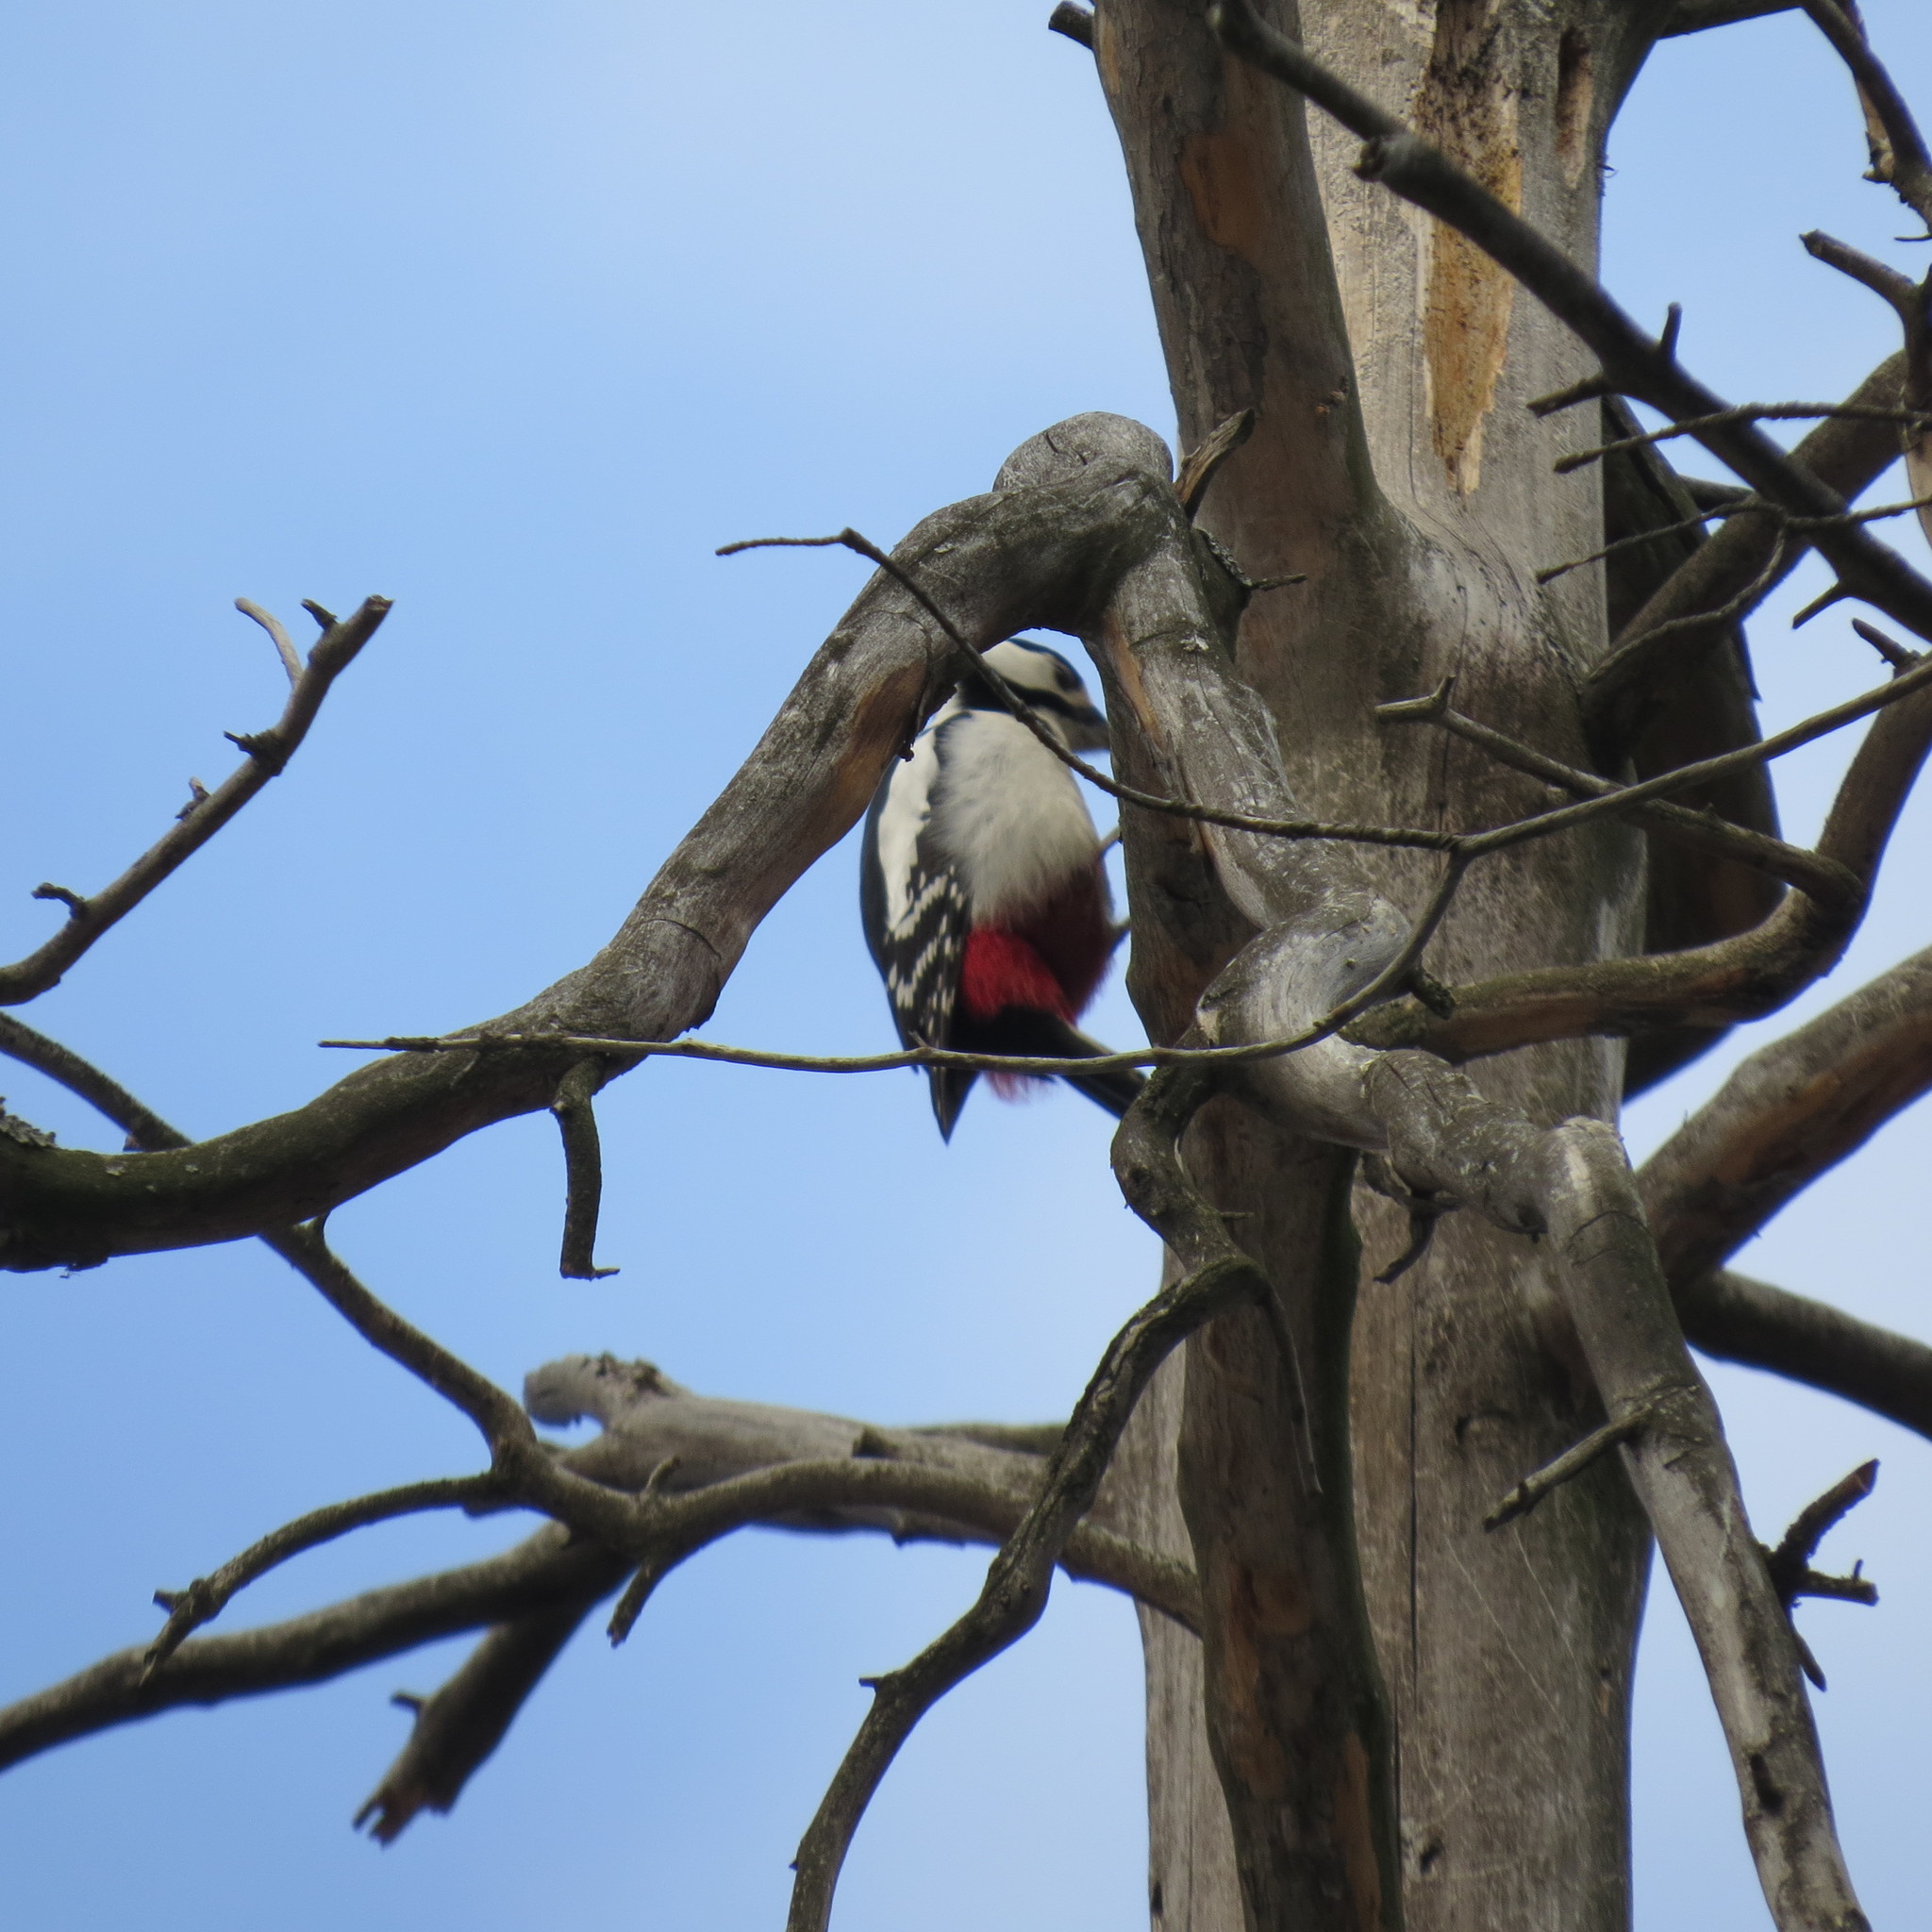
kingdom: Animalia
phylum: Chordata
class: Aves
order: Piciformes
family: Picidae
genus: Dendrocopos
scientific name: Dendrocopos major
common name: Great spotted woodpecker
